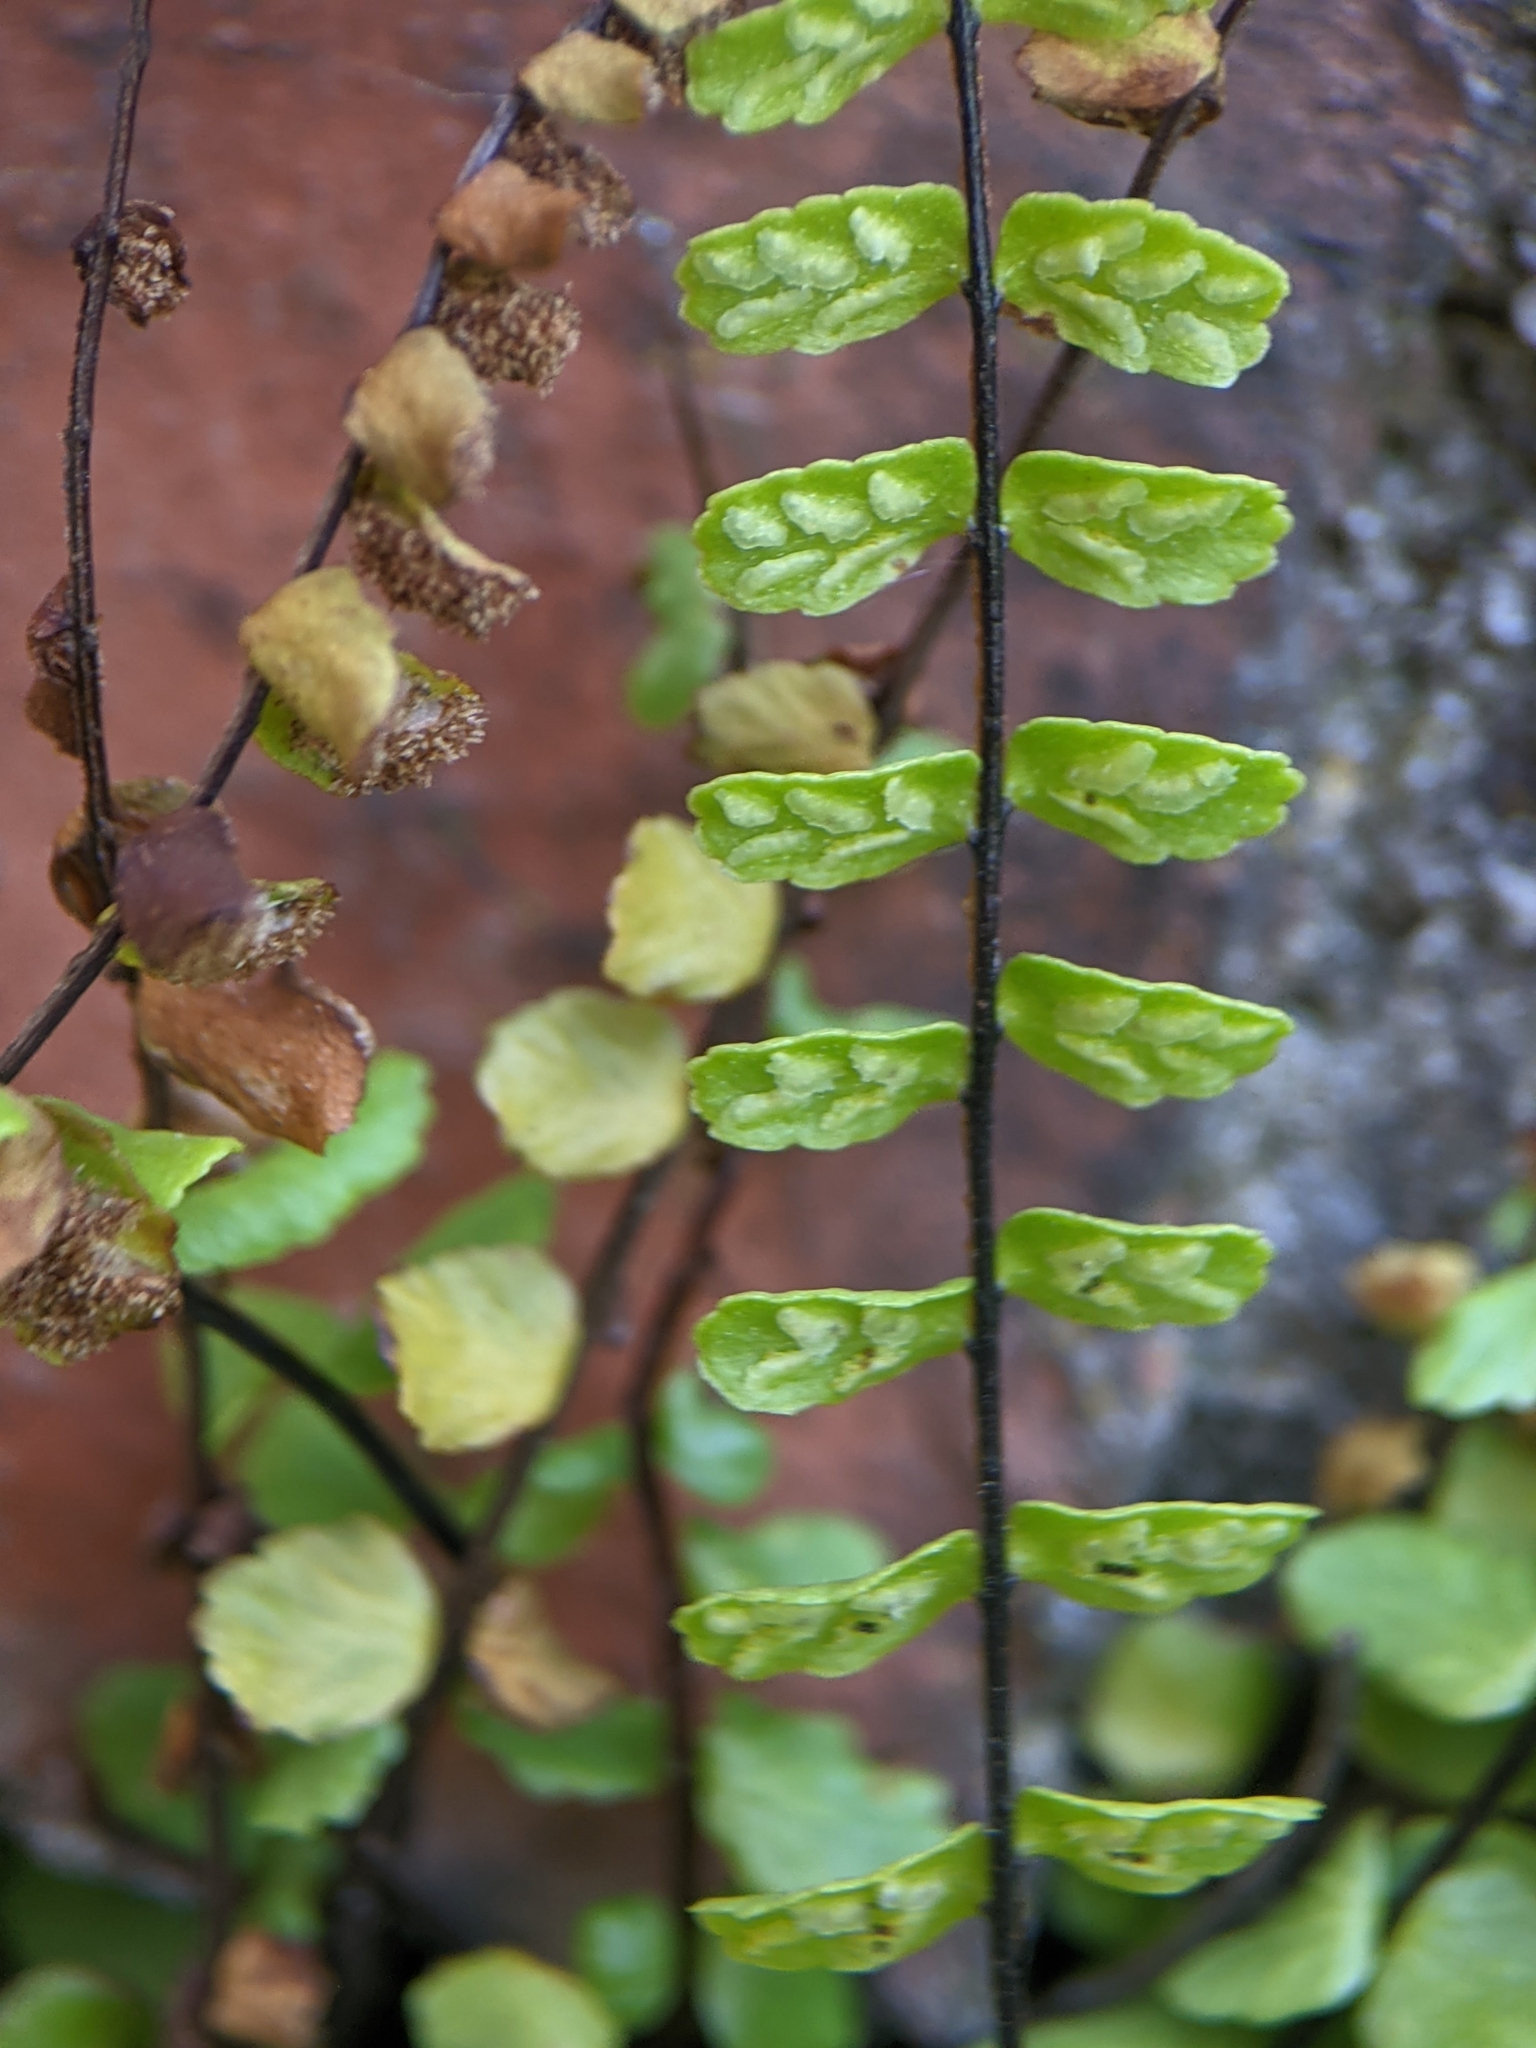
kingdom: Plantae
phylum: Tracheophyta
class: Polypodiopsida
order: Polypodiales
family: Aspleniaceae
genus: Asplenium
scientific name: Asplenium trichomanes
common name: Maidenhair spleenwort
